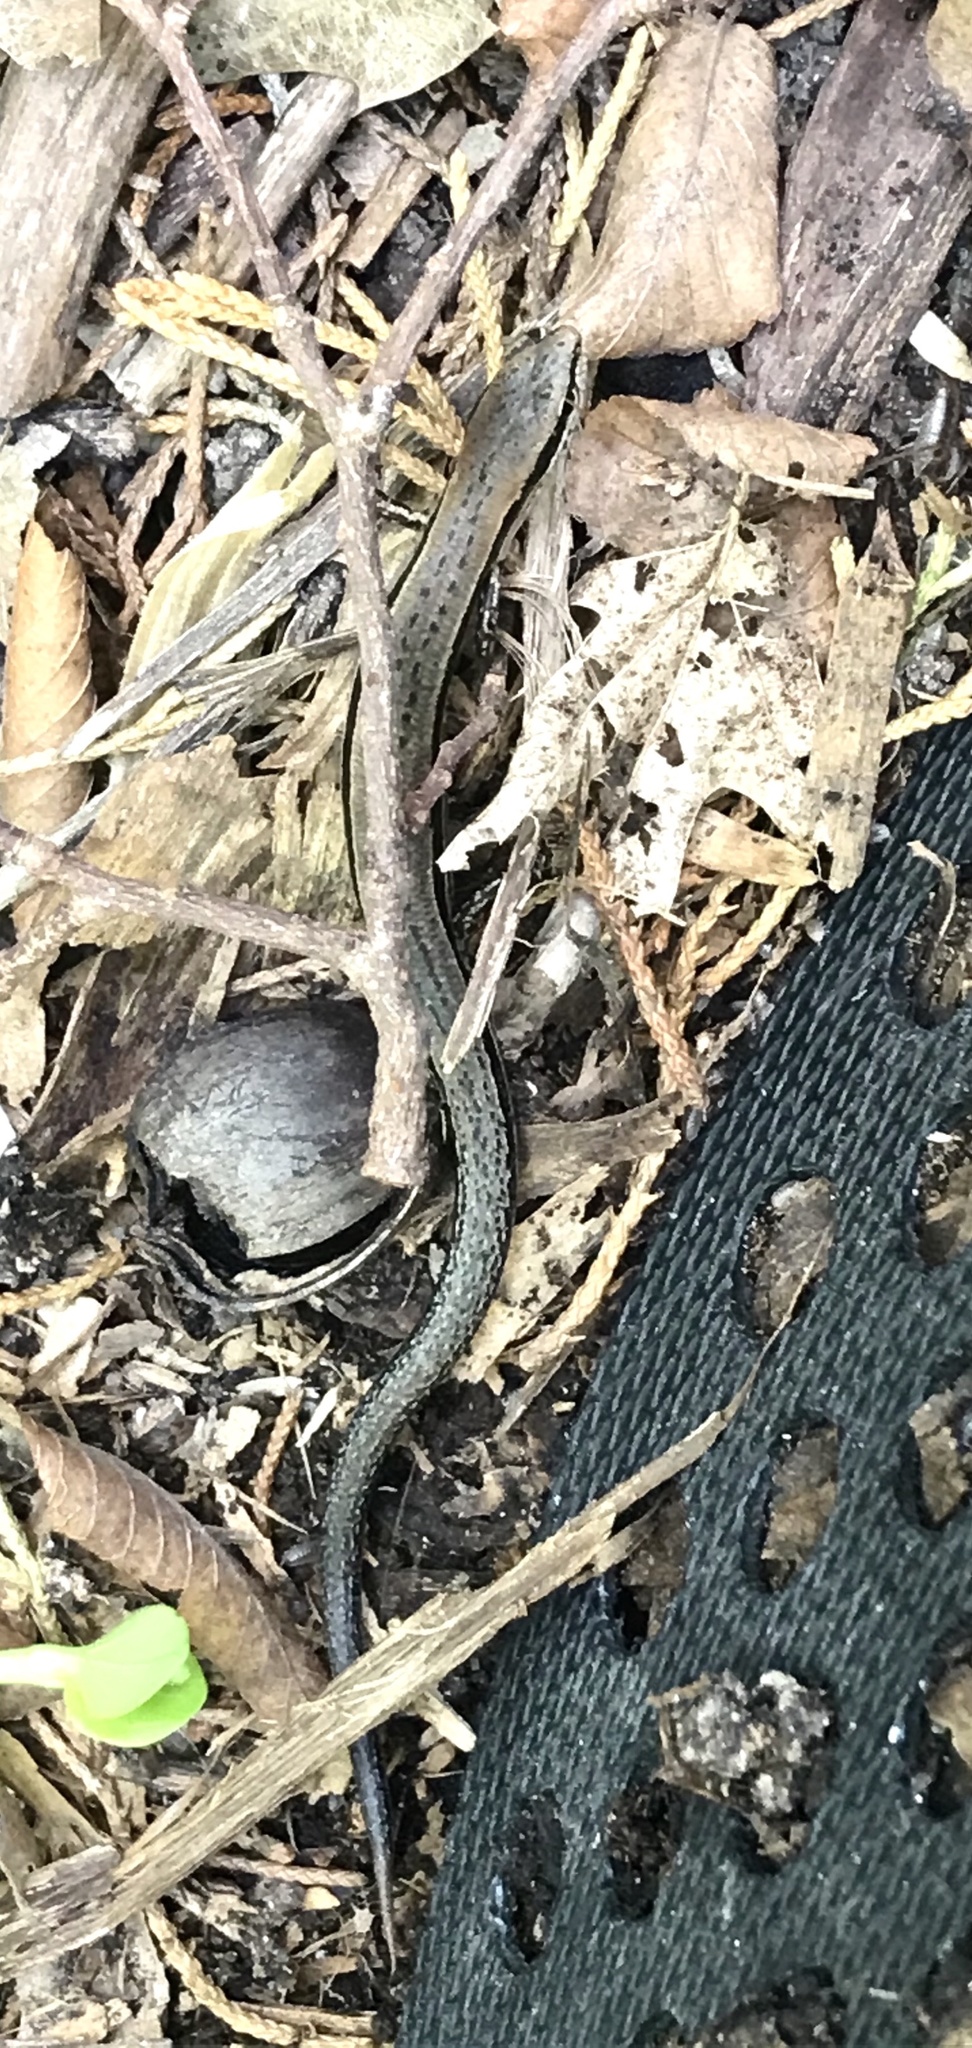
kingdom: Animalia
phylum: Chordata
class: Squamata
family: Scincidae
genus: Scincella
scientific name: Scincella lateralis
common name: Ground skink
